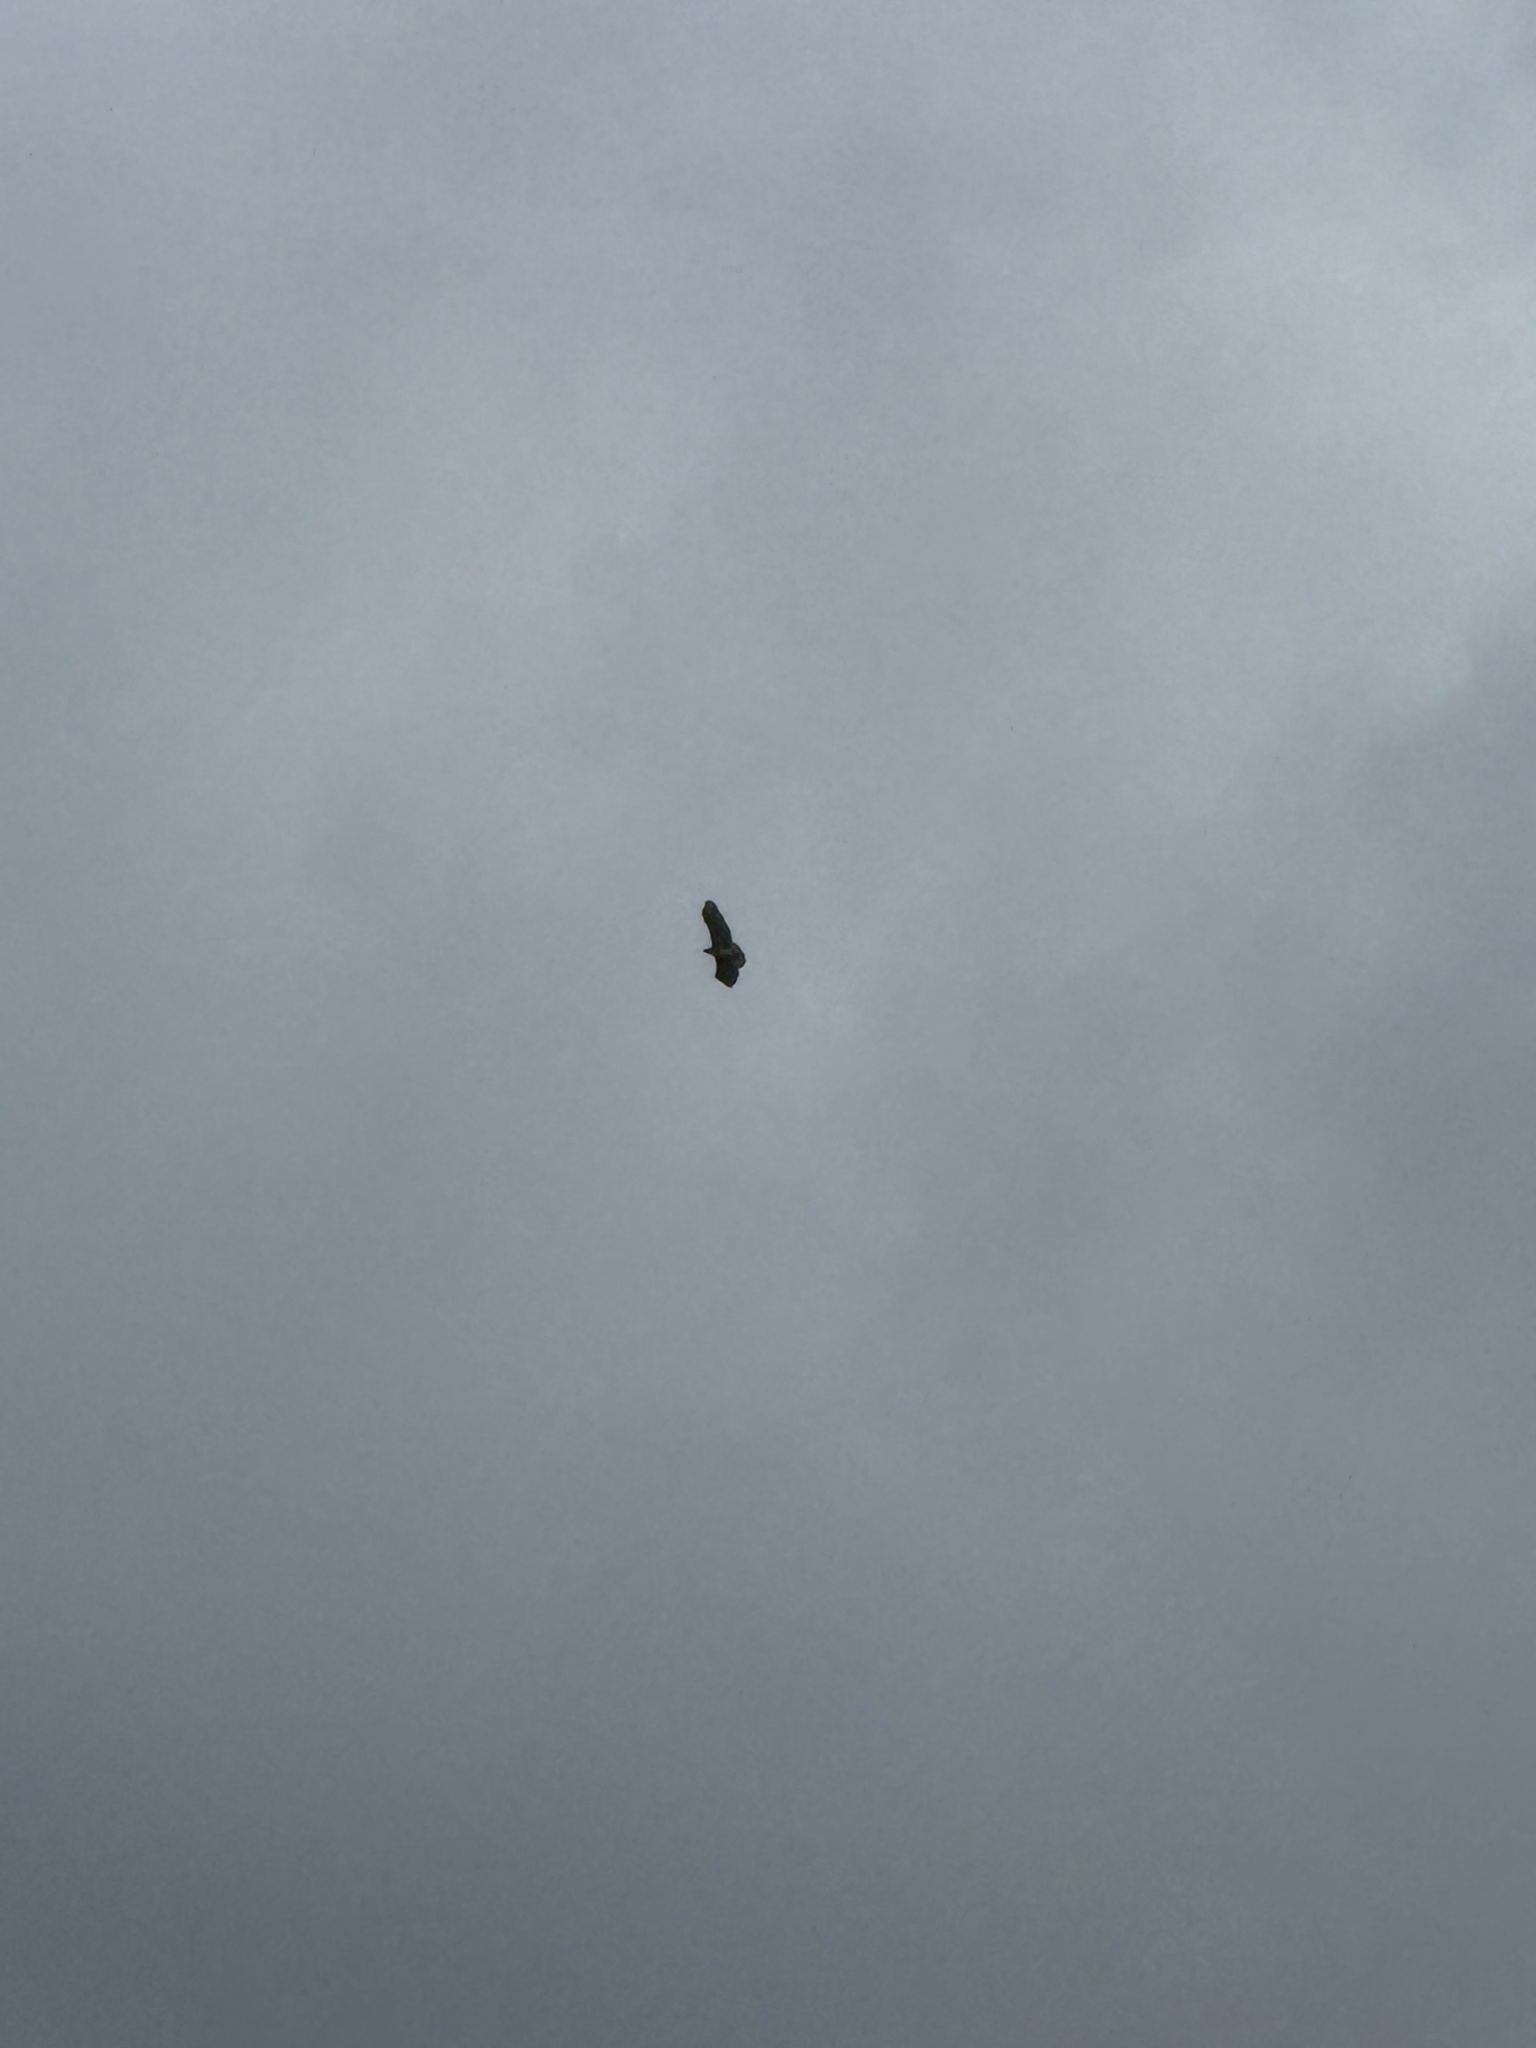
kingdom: Animalia
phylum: Chordata
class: Aves
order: Accipitriformes
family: Accipitridae
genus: Buteo
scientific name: Buteo jamaicensis
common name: Red-tailed hawk
